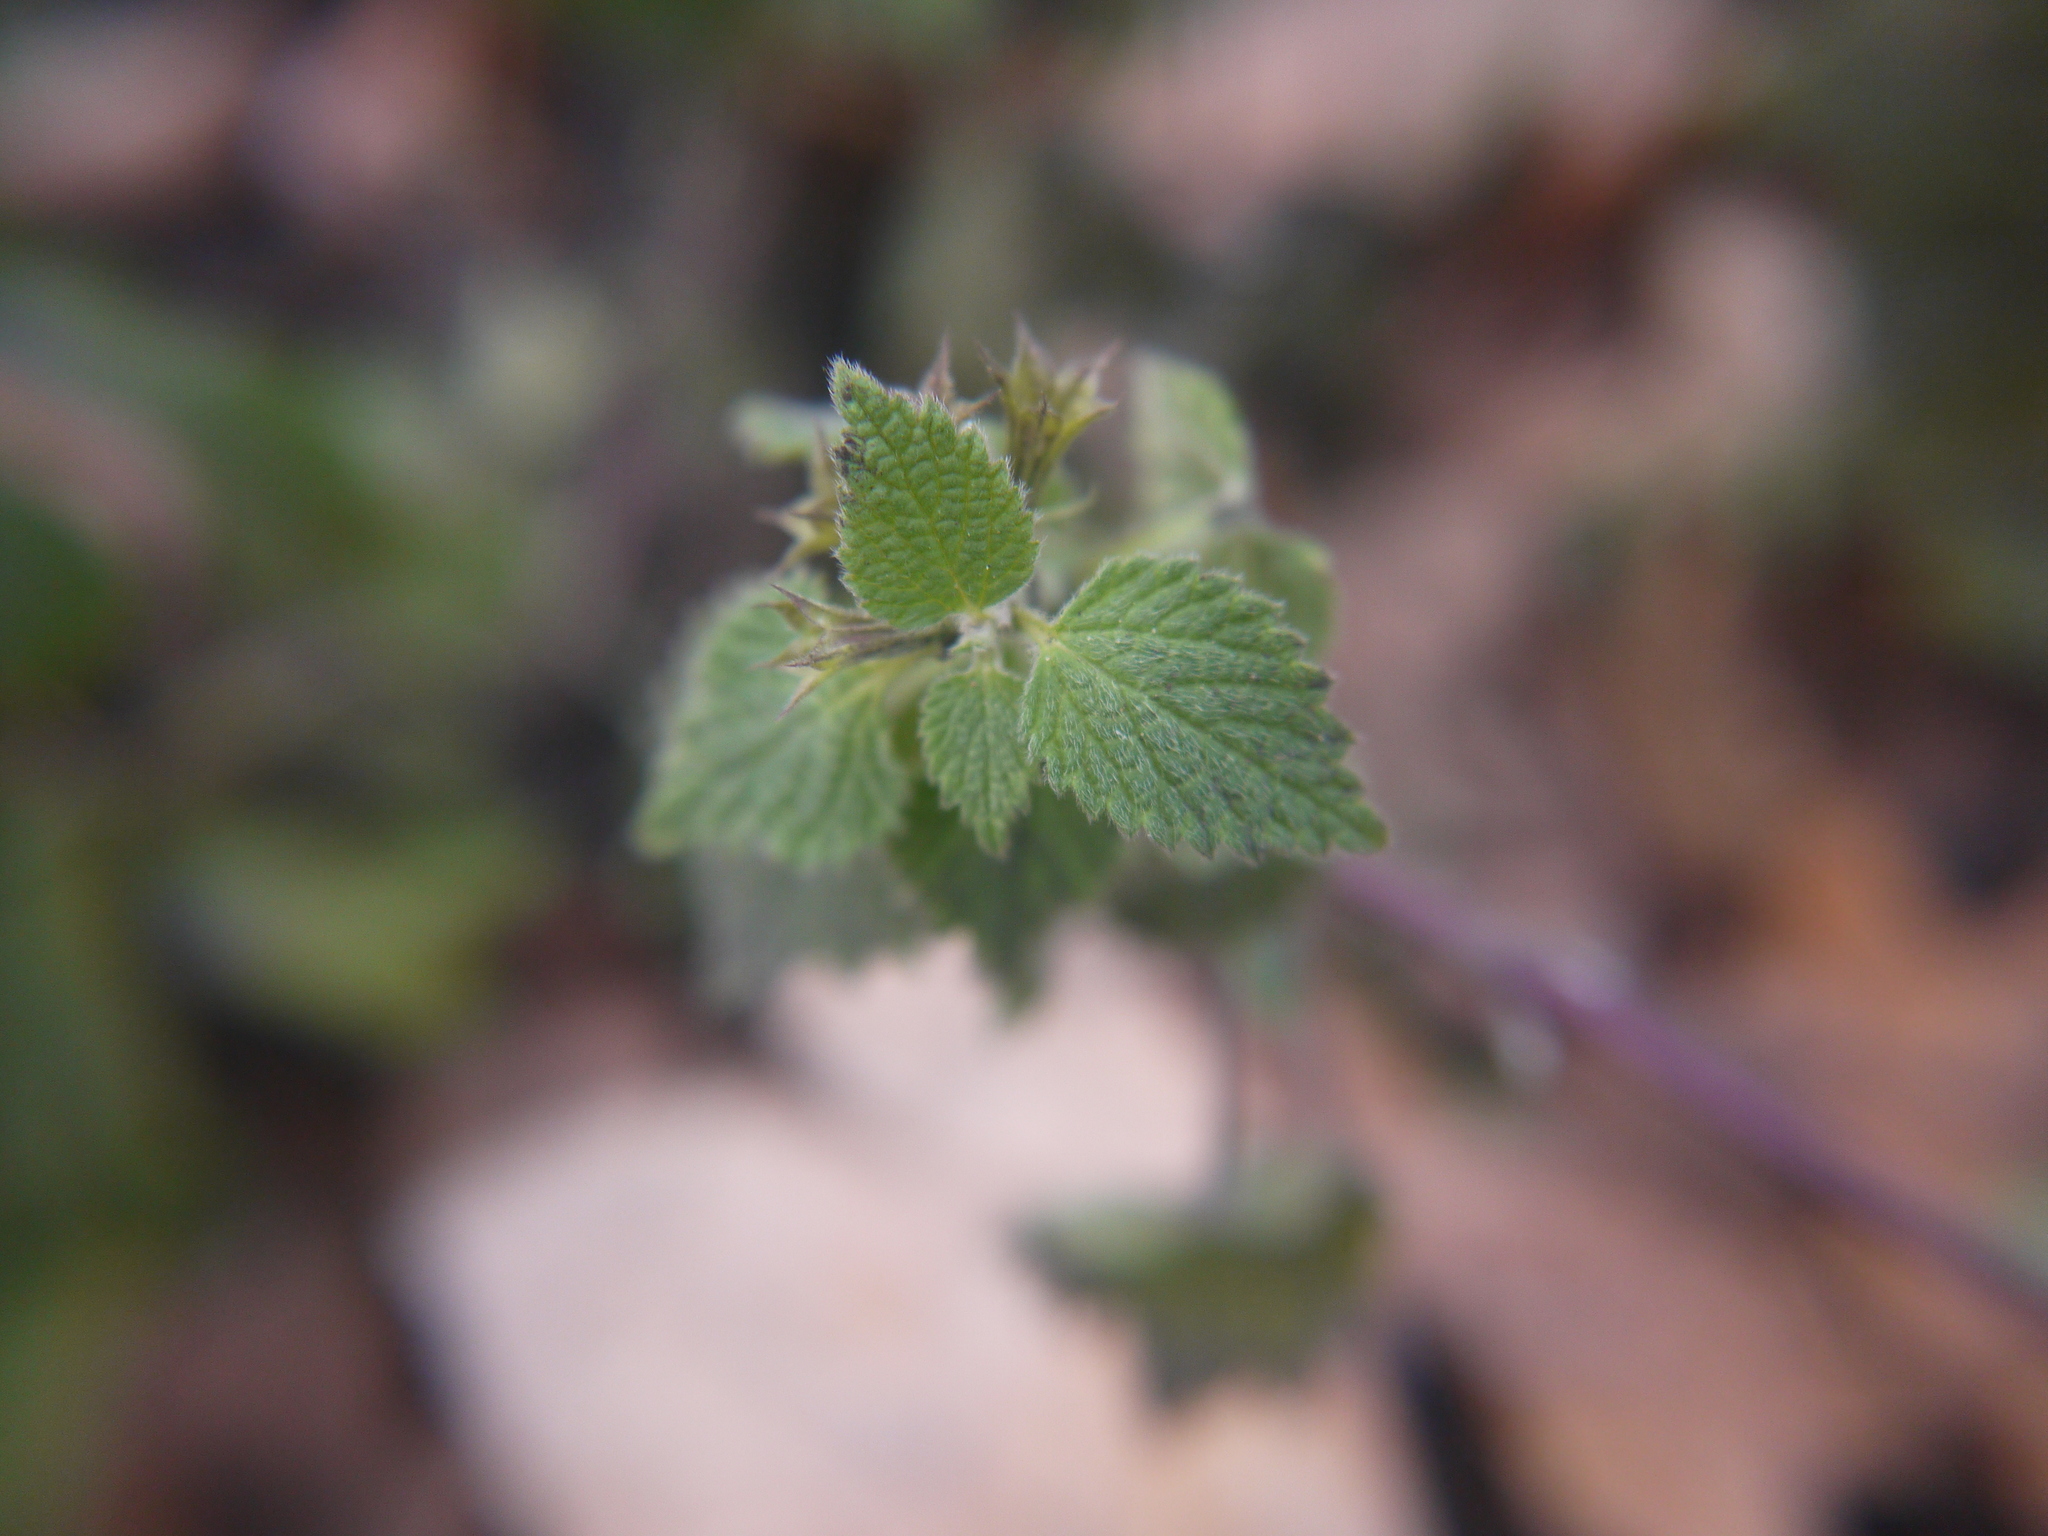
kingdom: Plantae
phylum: Tracheophyta
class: Magnoliopsida
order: Lamiales
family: Lamiaceae
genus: Ballota
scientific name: Ballota nigra
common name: Black horehound
